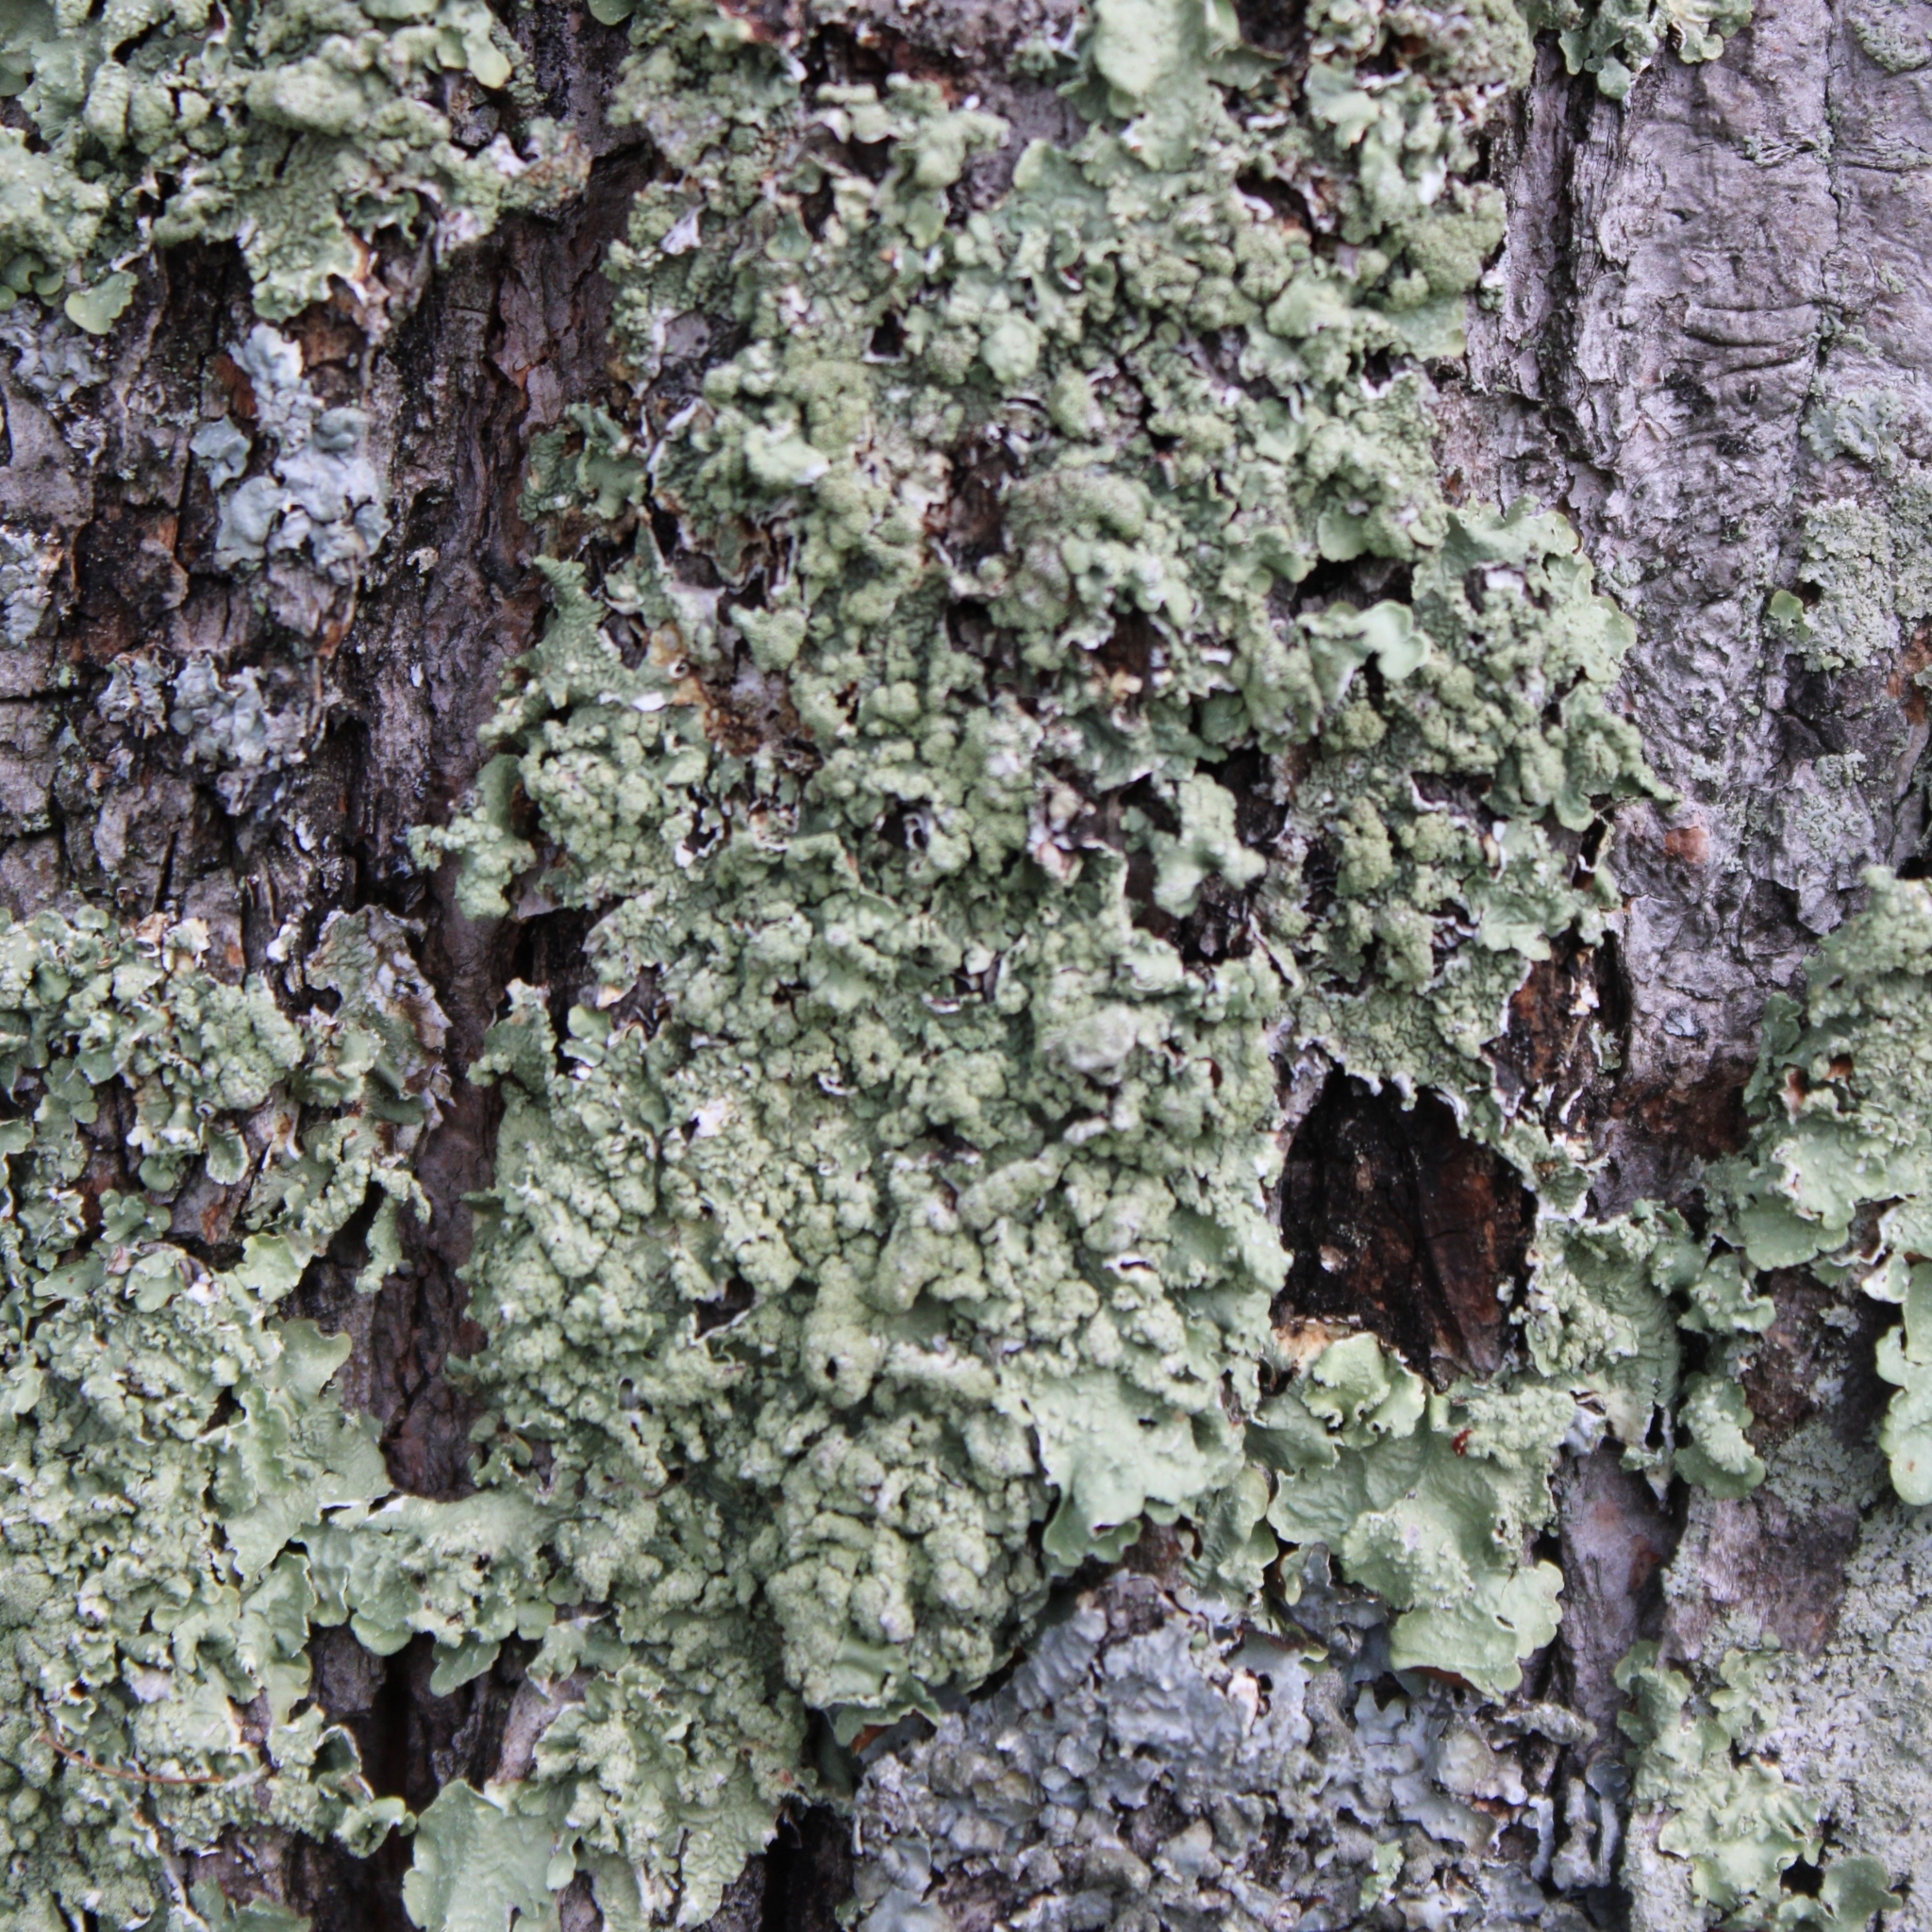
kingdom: Fungi
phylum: Ascomycota
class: Lecanoromycetes
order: Lecanorales
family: Parmeliaceae
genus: Flavopunctelia
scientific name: Flavopunctelia flaventior
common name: Speckled greenshield
